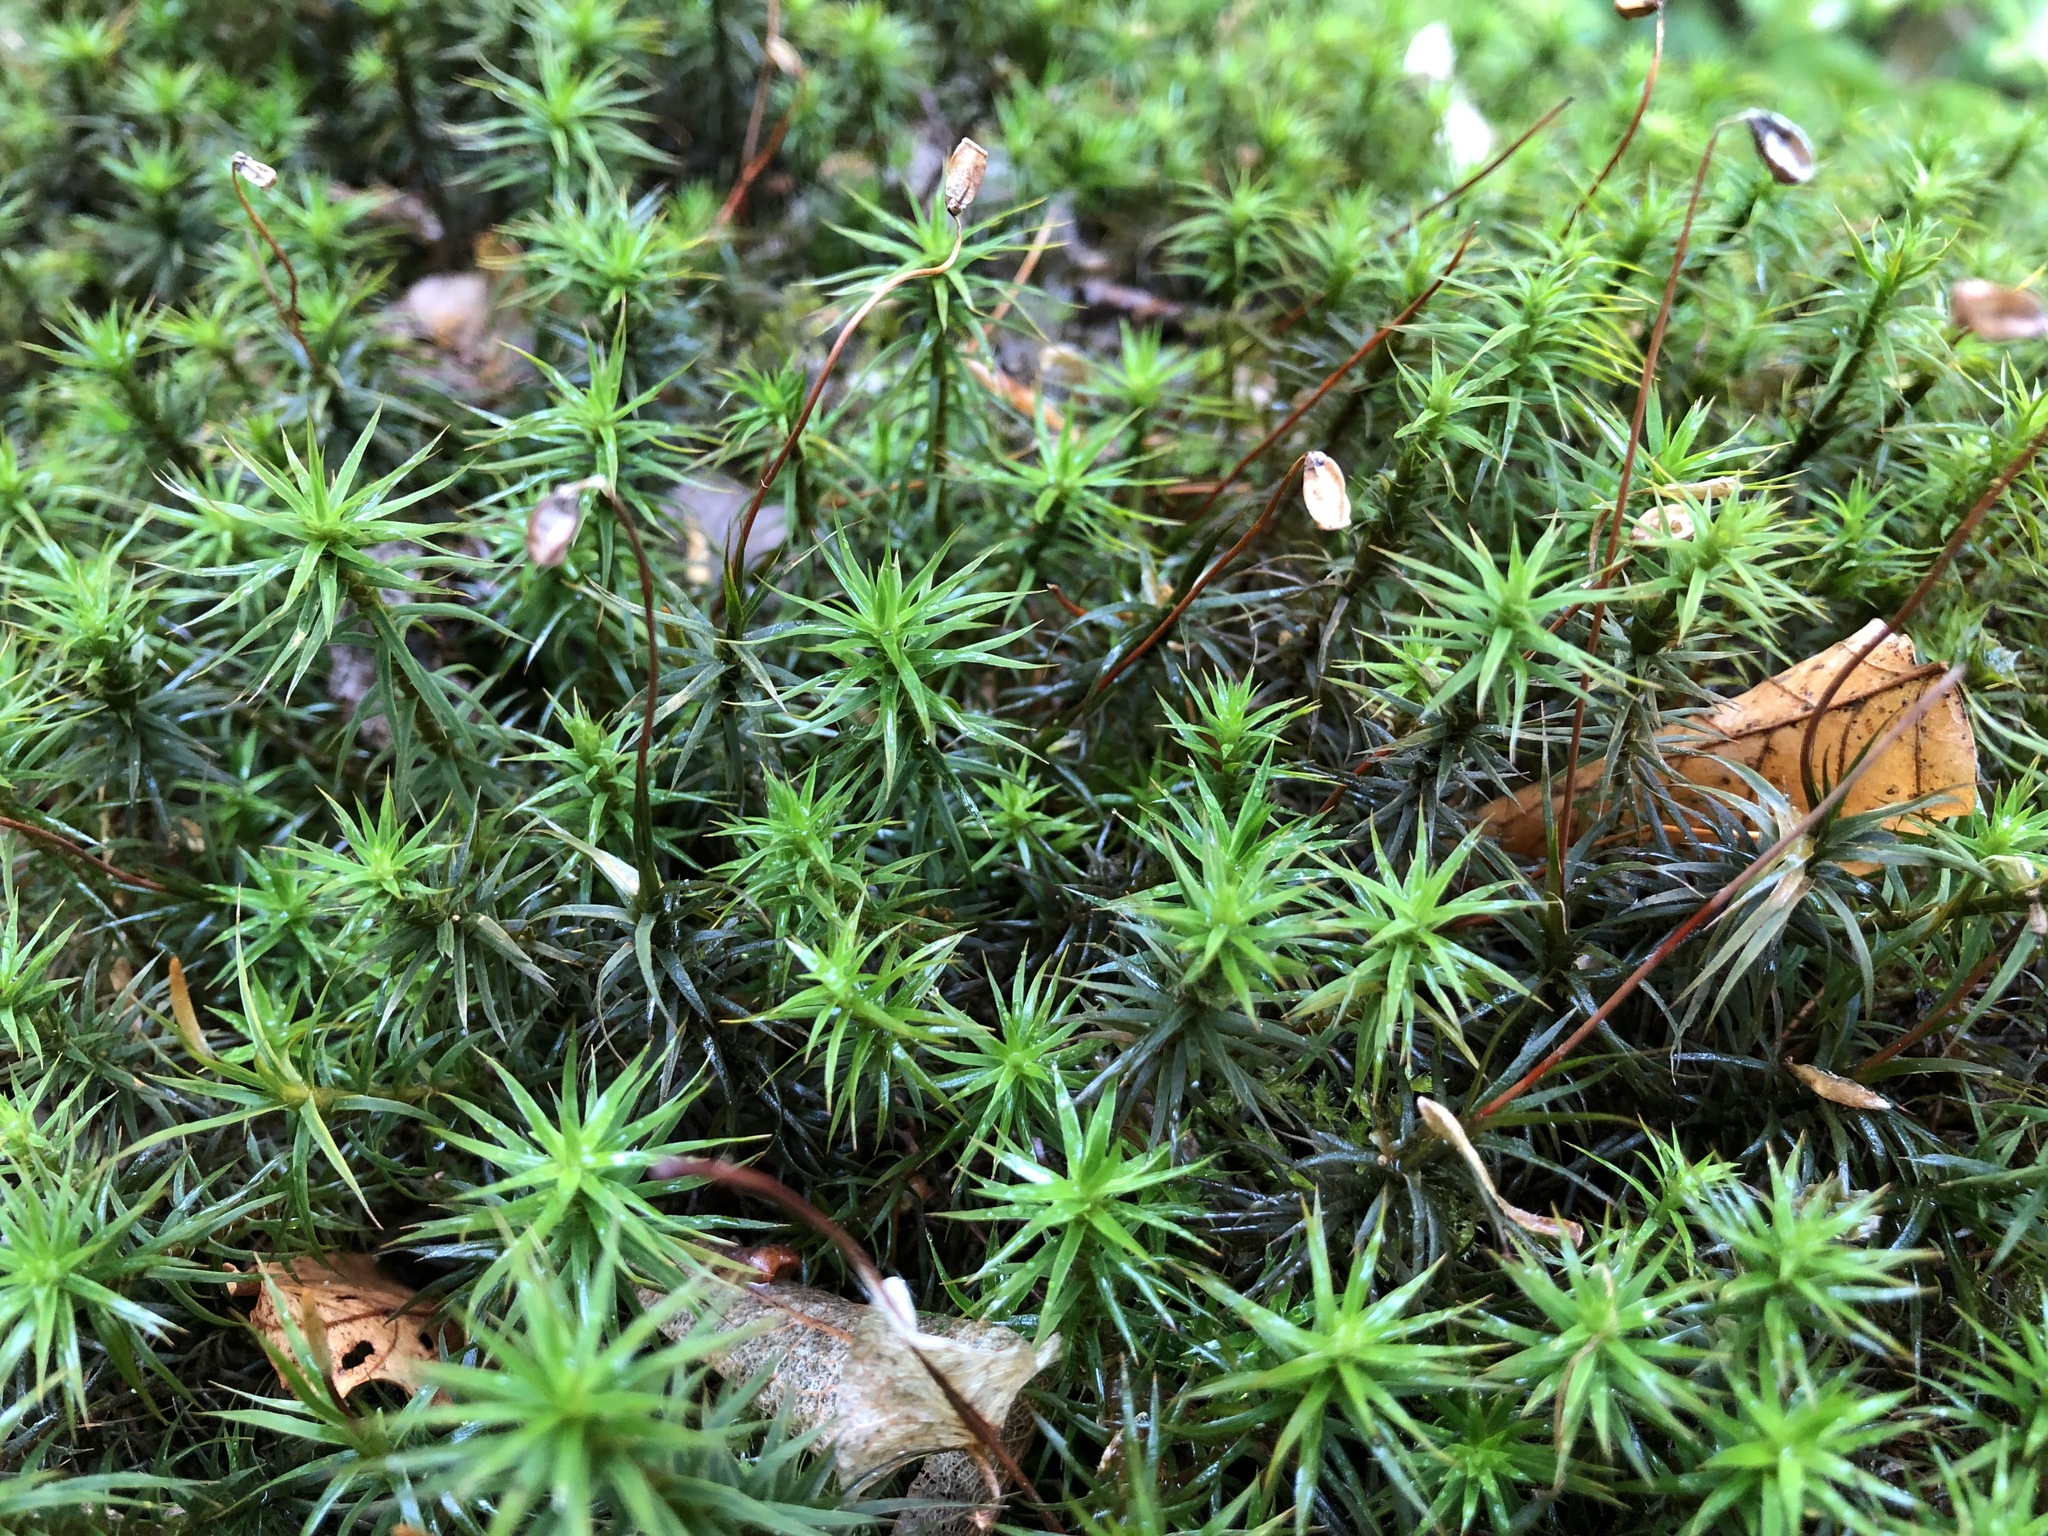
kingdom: Plantae
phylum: Bryophyta
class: Polytrichopsida
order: Polytrichales
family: Polytrichaceae
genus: Polytrichum
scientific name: Polytrichum formosum
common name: Bank haircap moss
